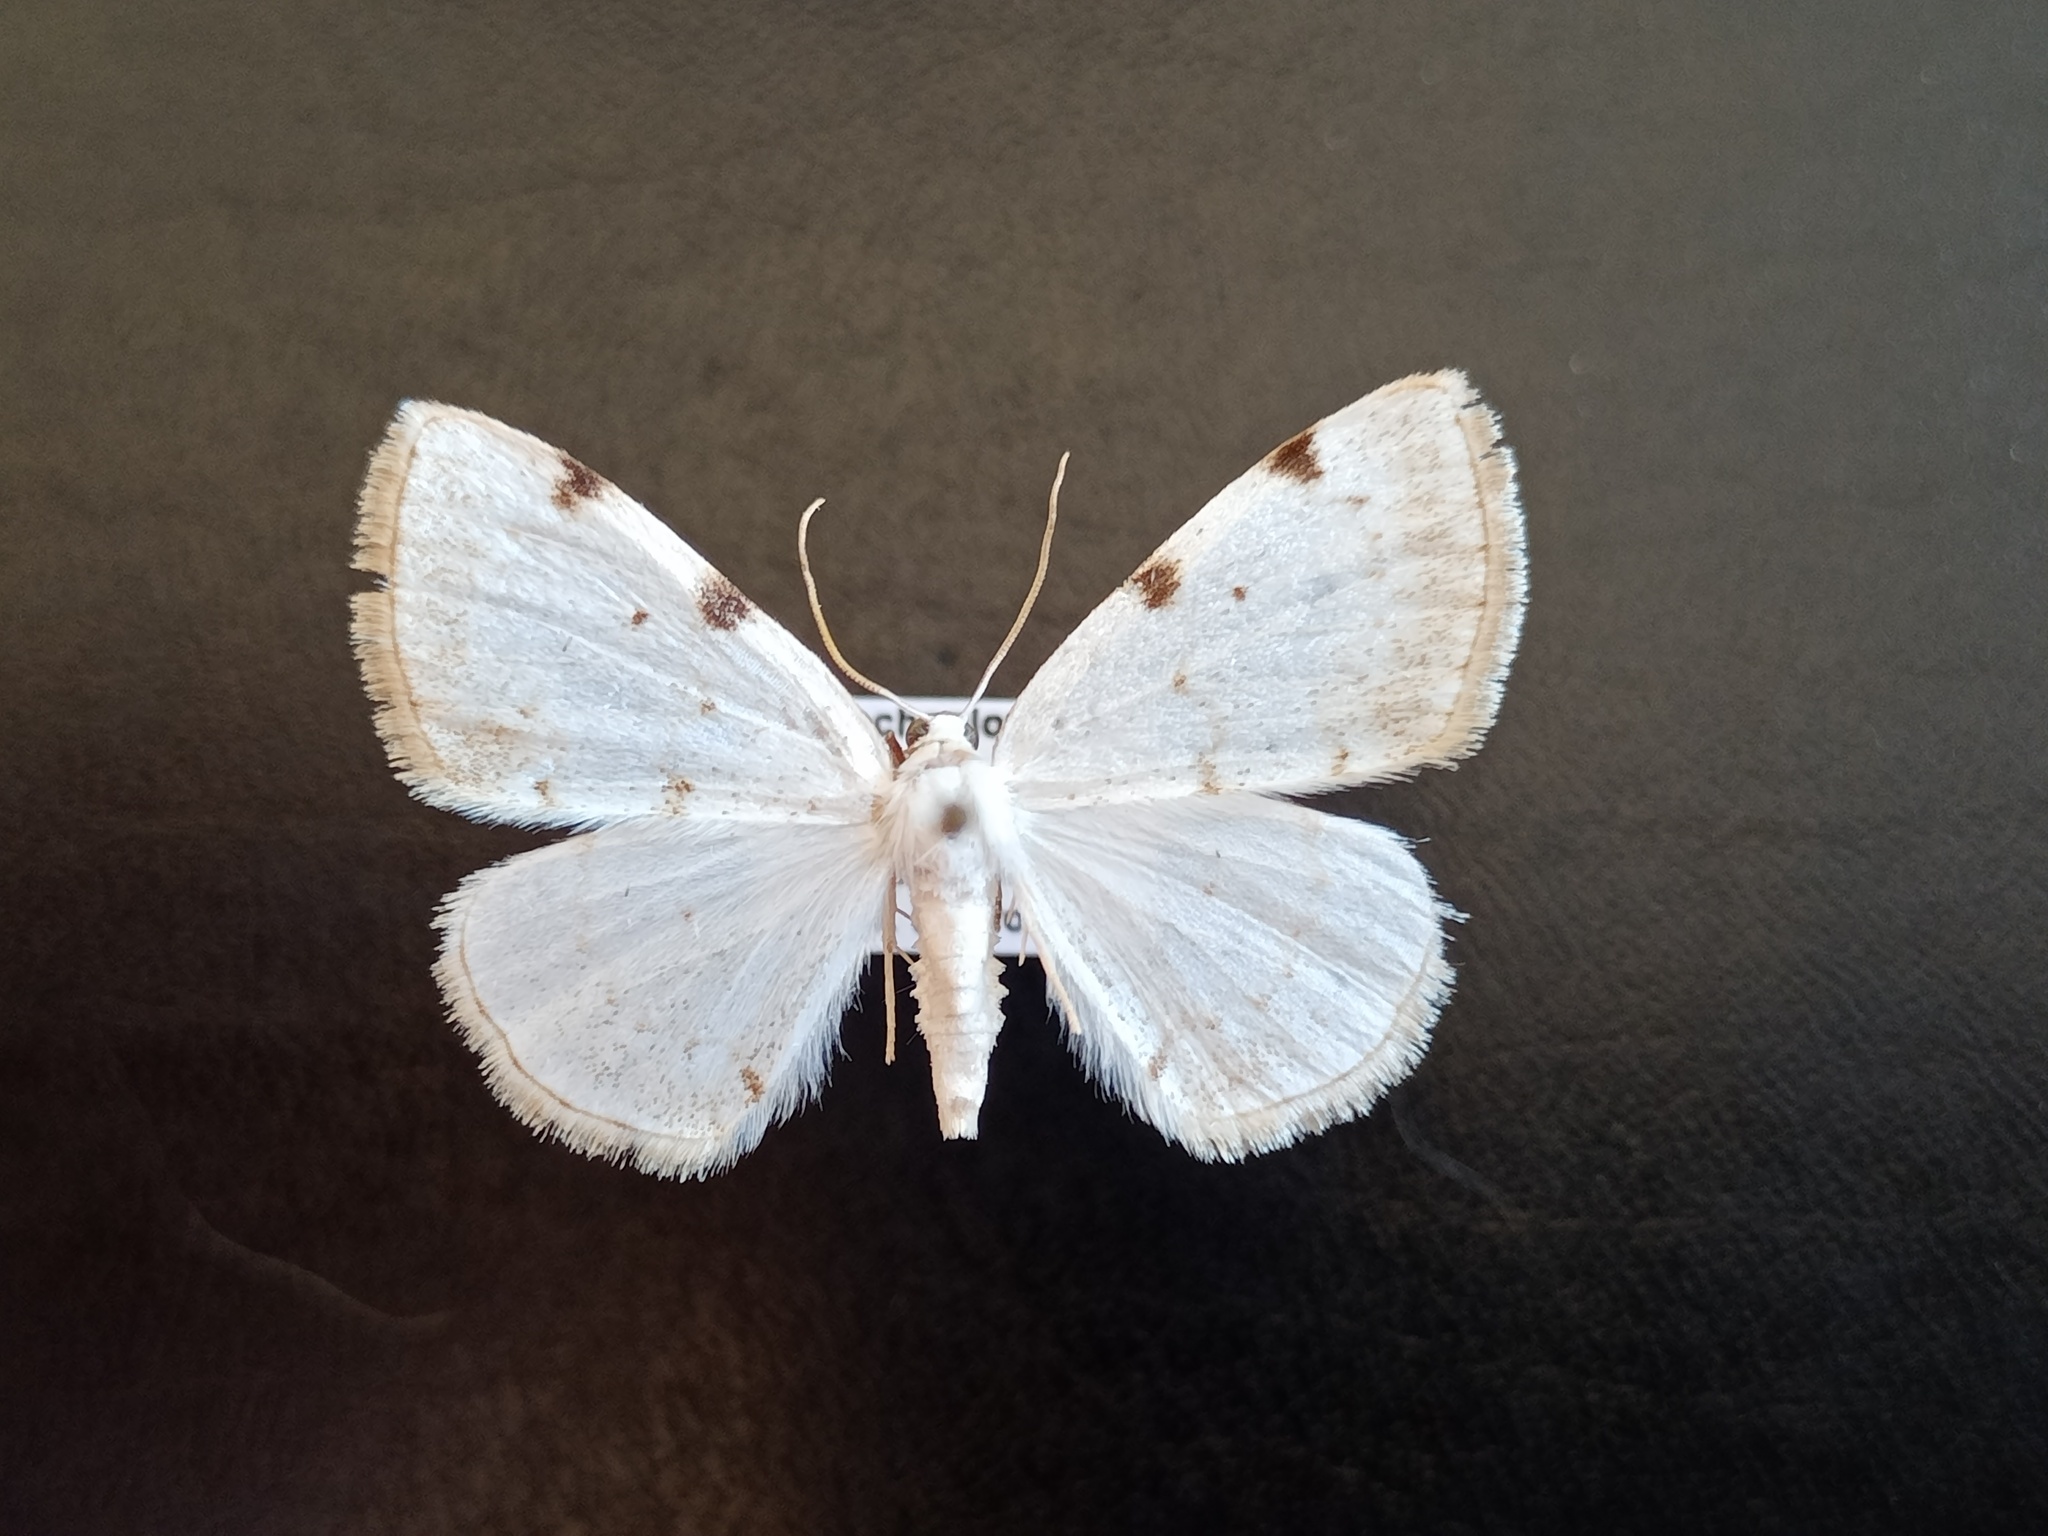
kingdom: Animalia
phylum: Arthropoda
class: Insecta
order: Lepidoptera
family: Geometridae
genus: Lomographa
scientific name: Lomographa bimaculata
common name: White-pinion spotted
